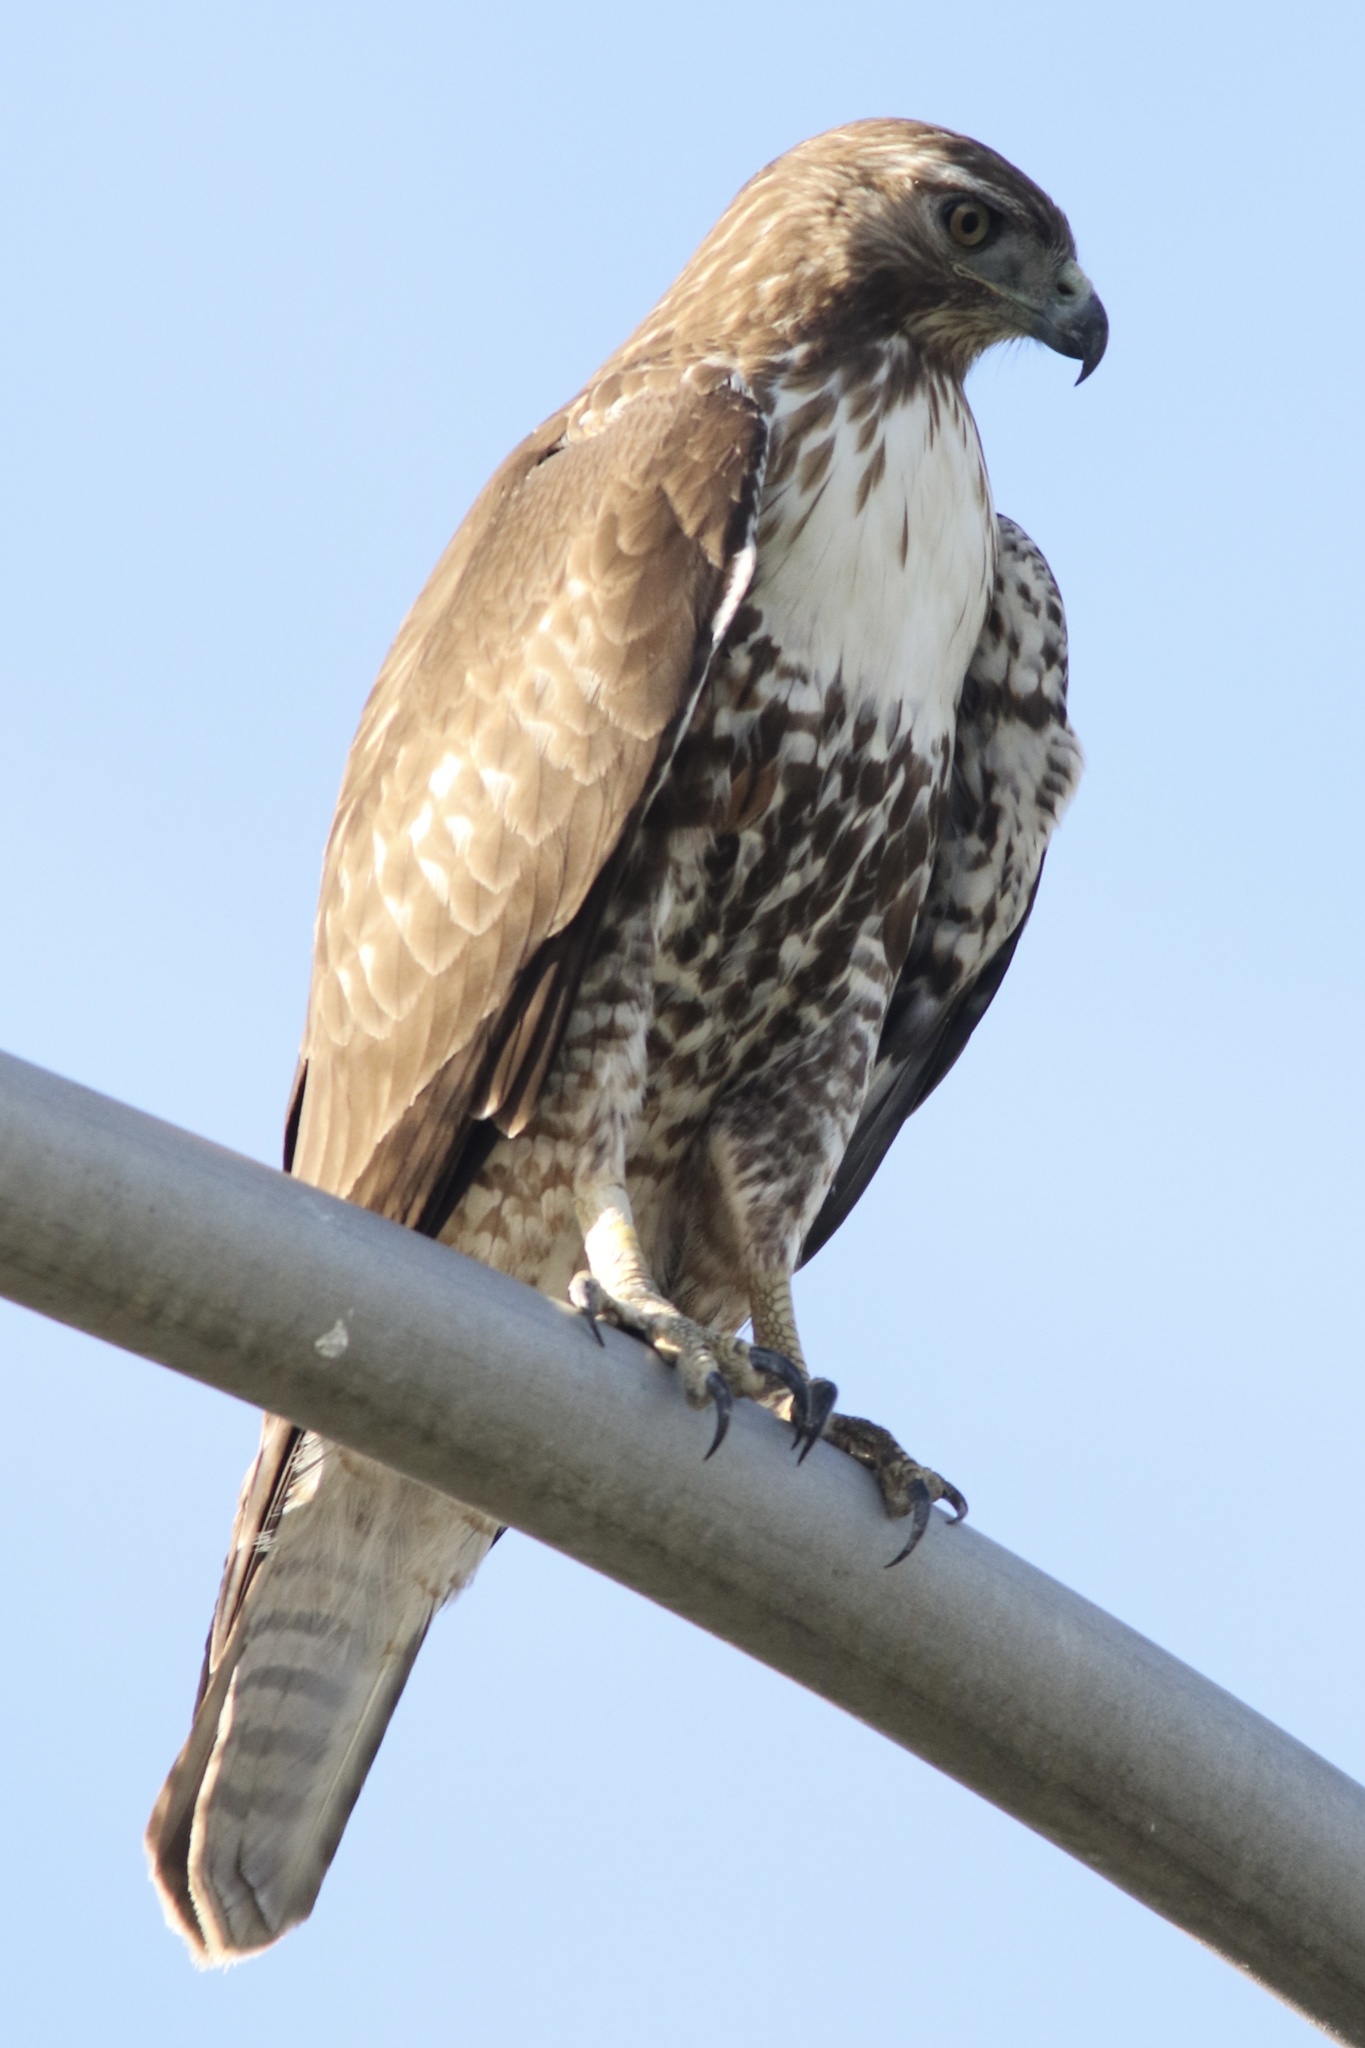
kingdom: Animalia
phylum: Chordata
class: Aves
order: Accipitriformes
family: Accipitridae
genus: Buteo
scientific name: Buteo jamaicensis
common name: Red-tailed hawk
